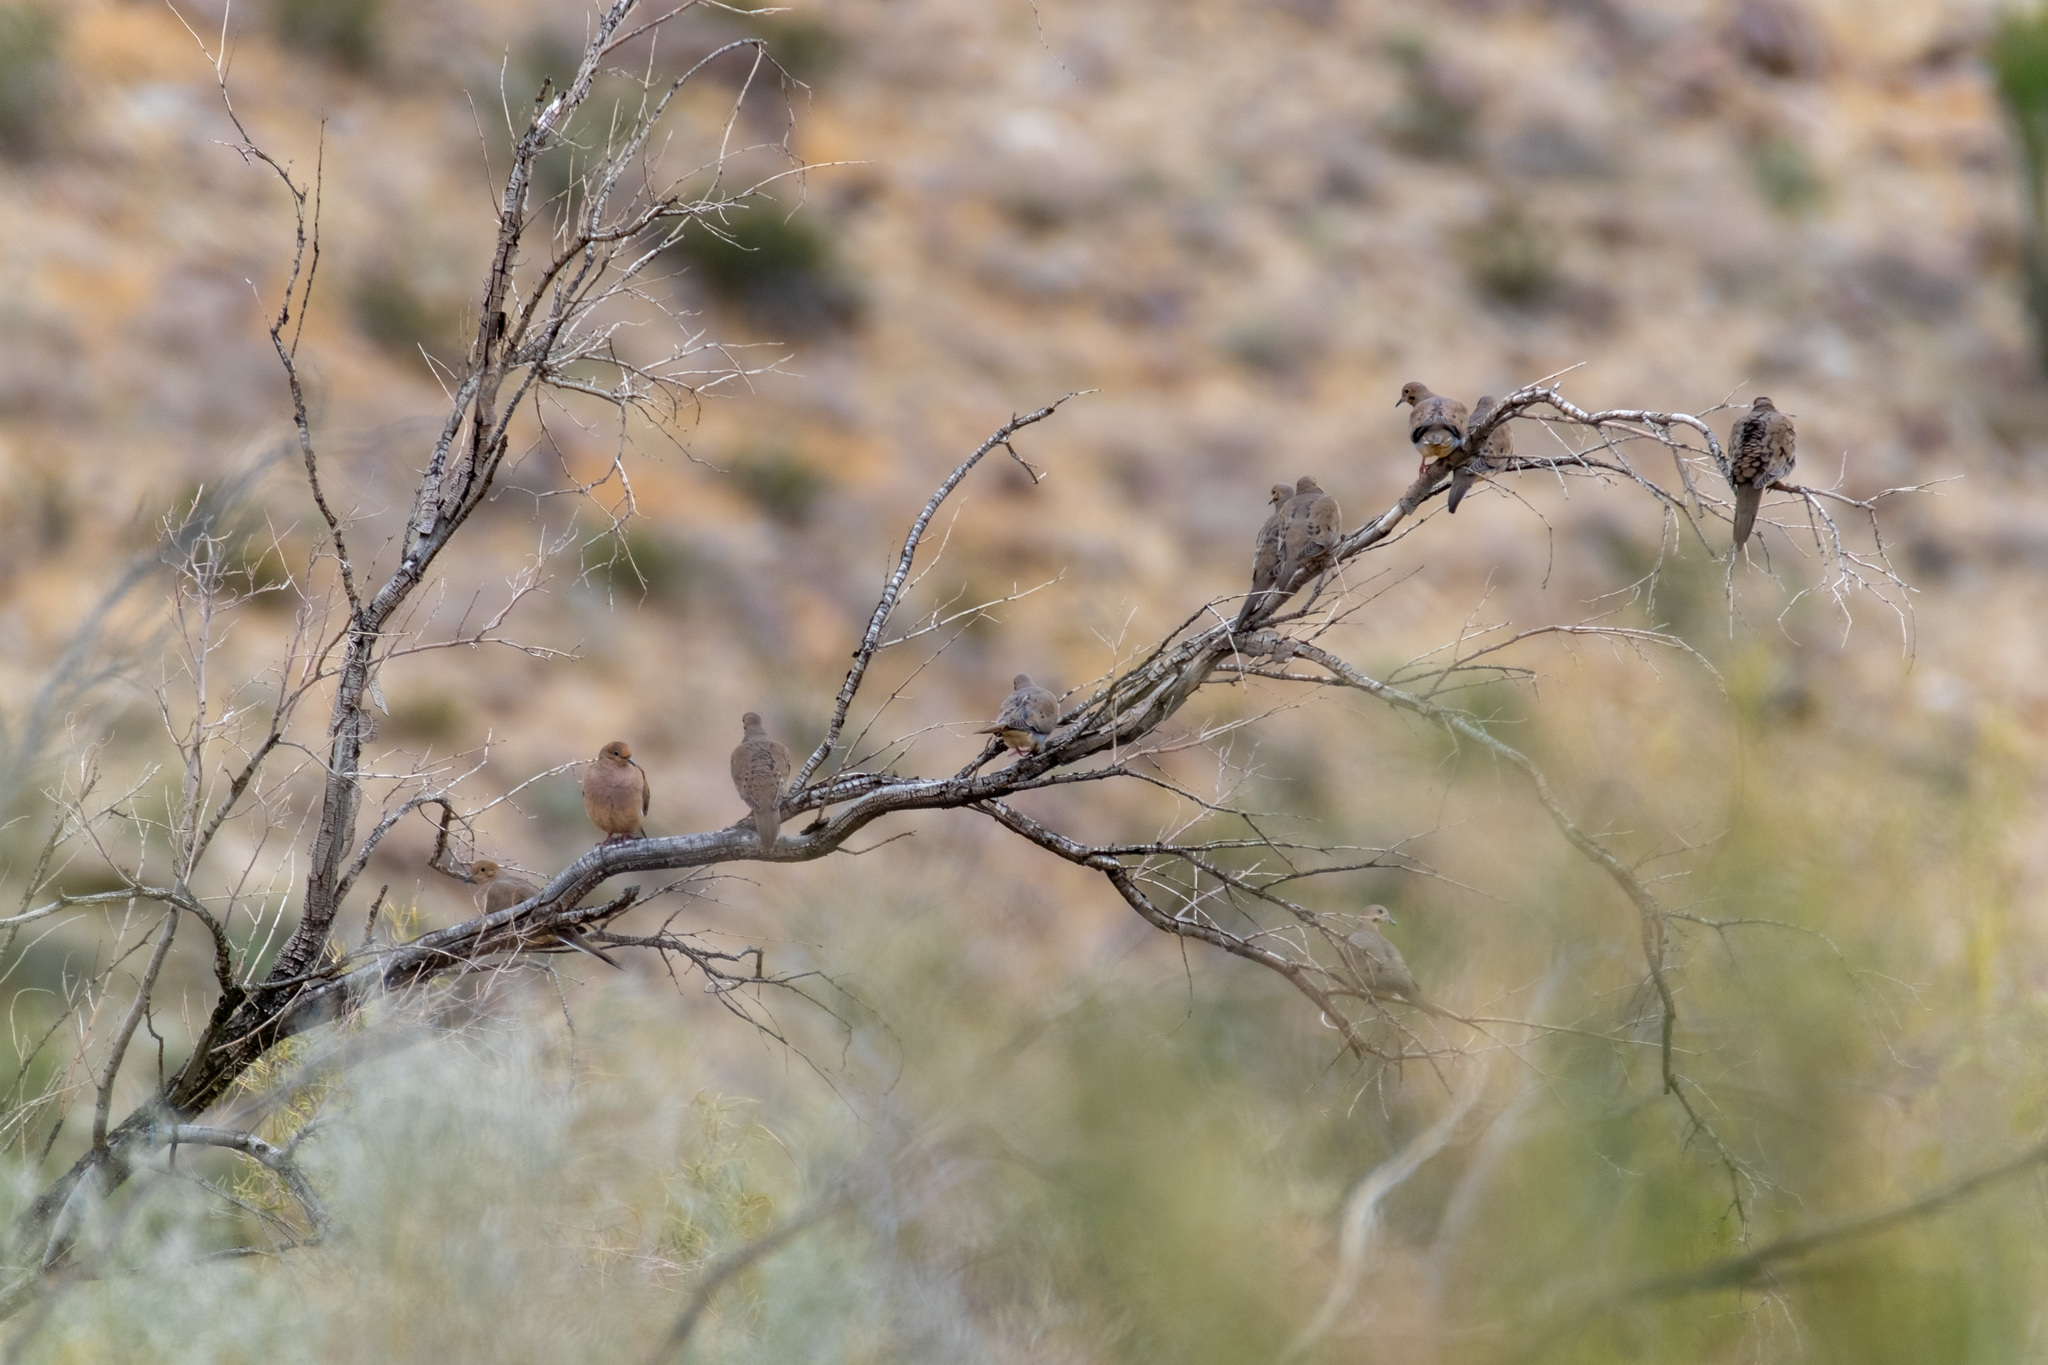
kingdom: Animalia
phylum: Chordata
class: Aves
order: Columbiformes
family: Columbidae
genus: Zenaida
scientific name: Zenaida macroura
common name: Mourning dove
